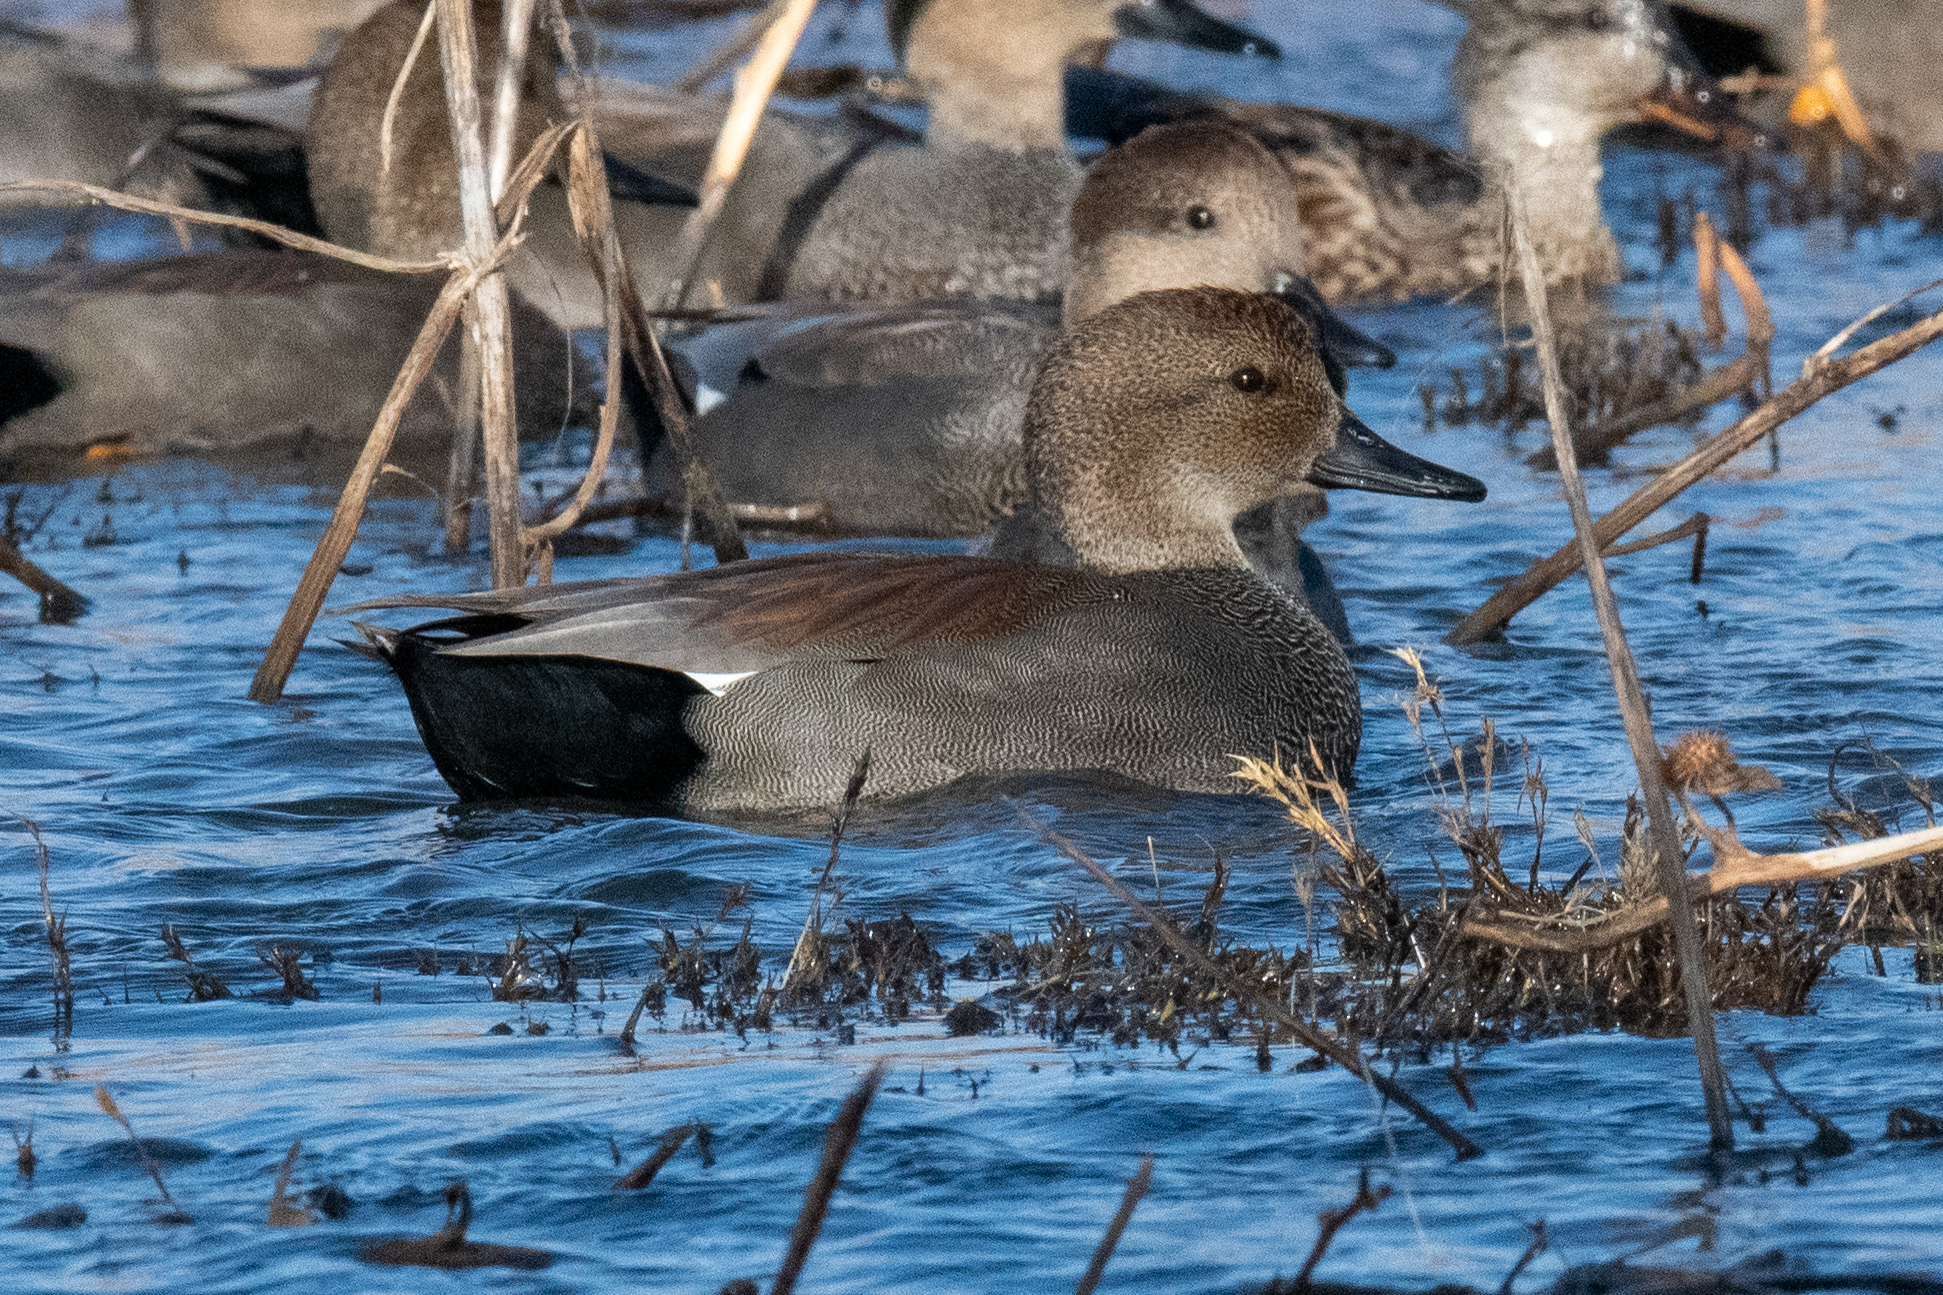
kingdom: Animalia
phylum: Chordata
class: Aves
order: Anseriformes
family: Anatidae
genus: Mareca
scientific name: Mareca strepera
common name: Gadwall
